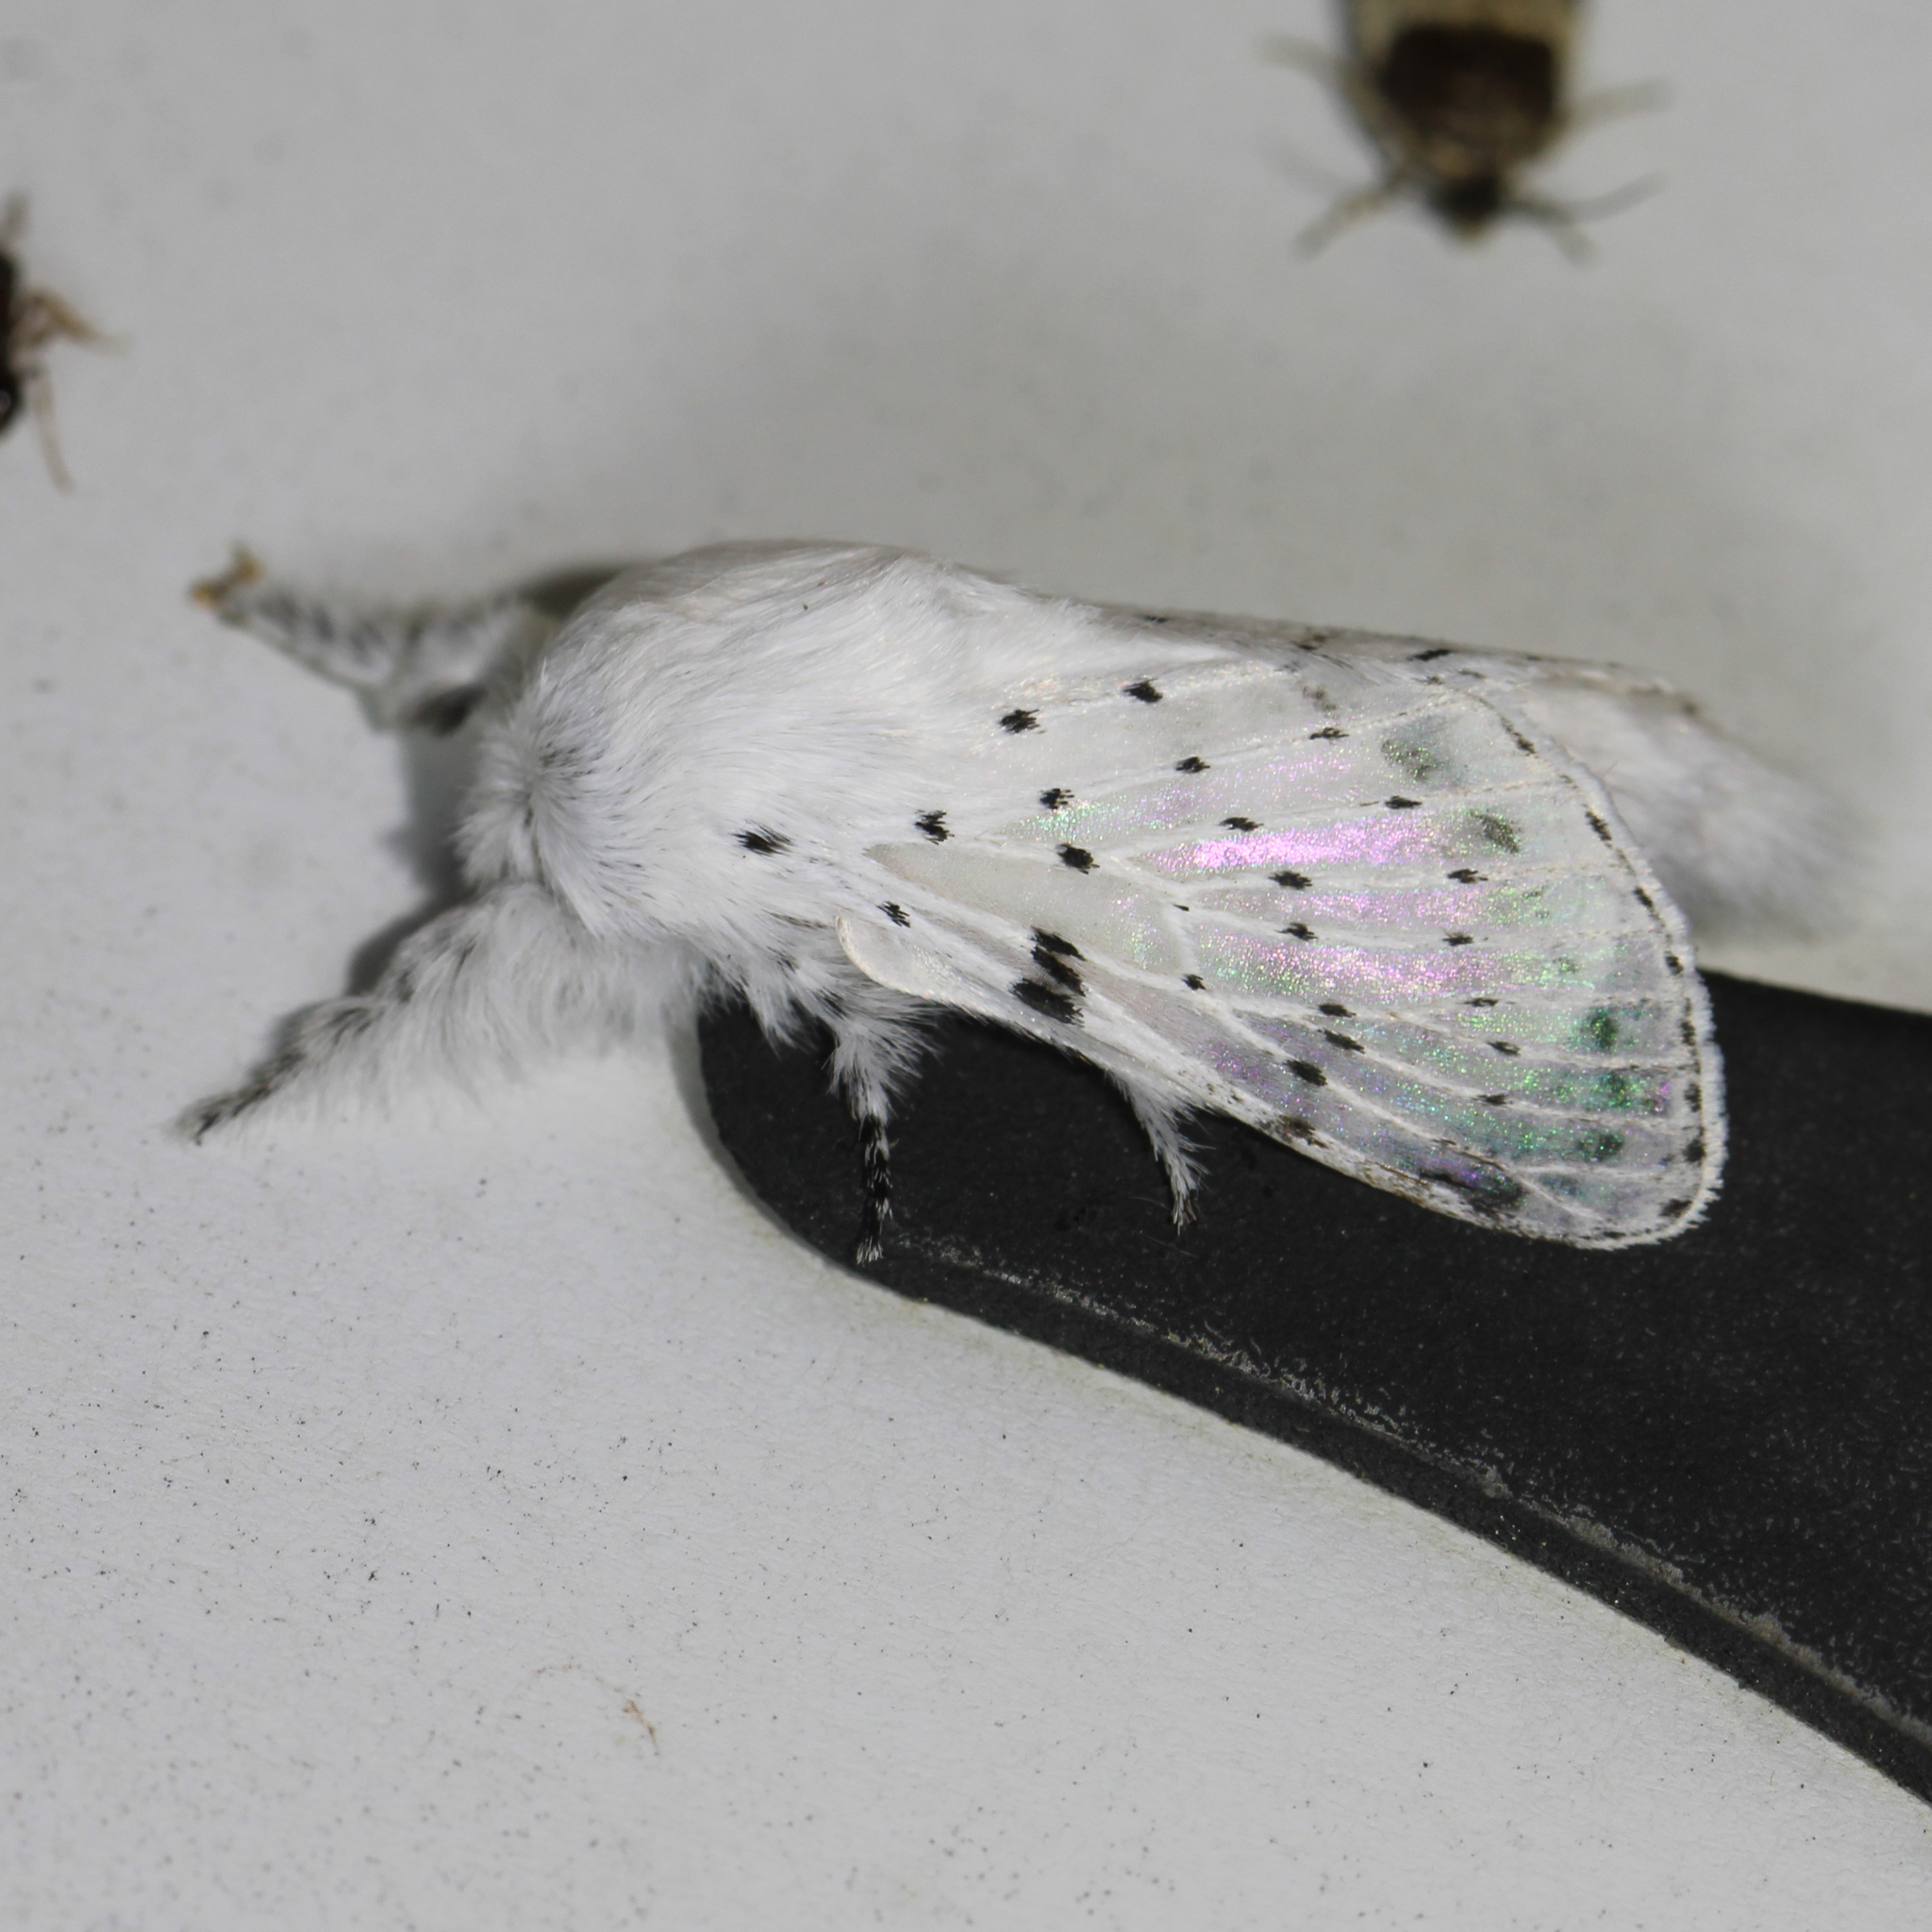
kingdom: Animalia
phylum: Arthropoda
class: Insecta
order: Lepidoptera
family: Lasiocampidae
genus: Artace
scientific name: Artace cribrarius
